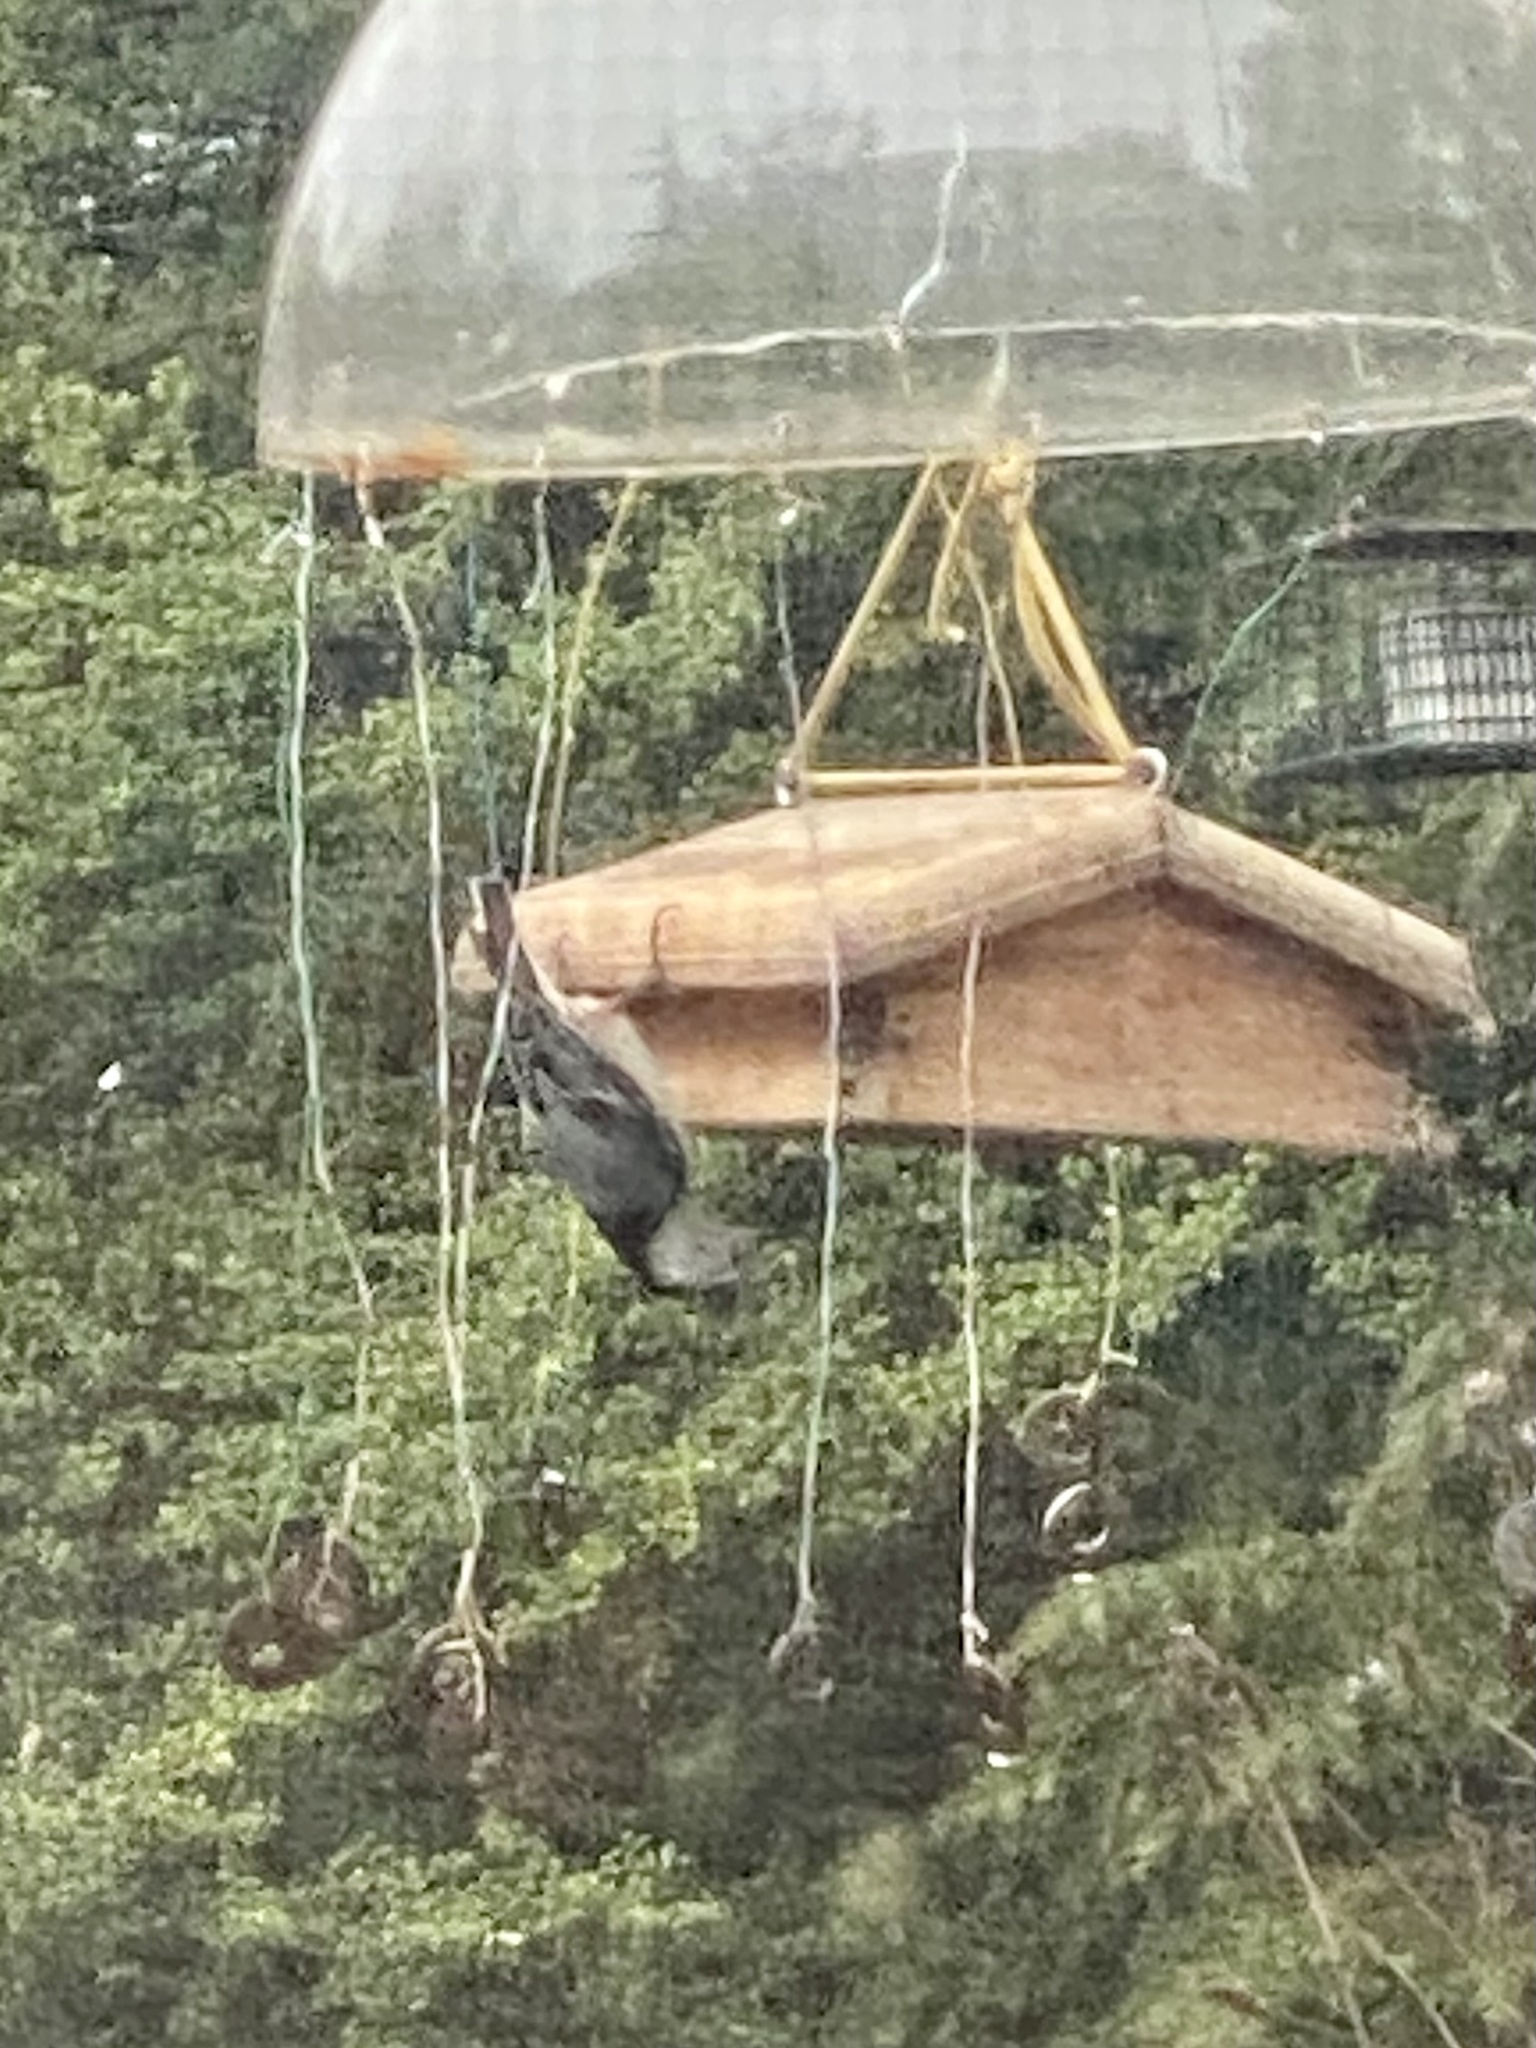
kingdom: Animalia
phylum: Chordata
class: Aves
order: Passeriformes
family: Sittidae
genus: Sitta
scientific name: Sitta carolinensis
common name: White-breasted nuthatch
